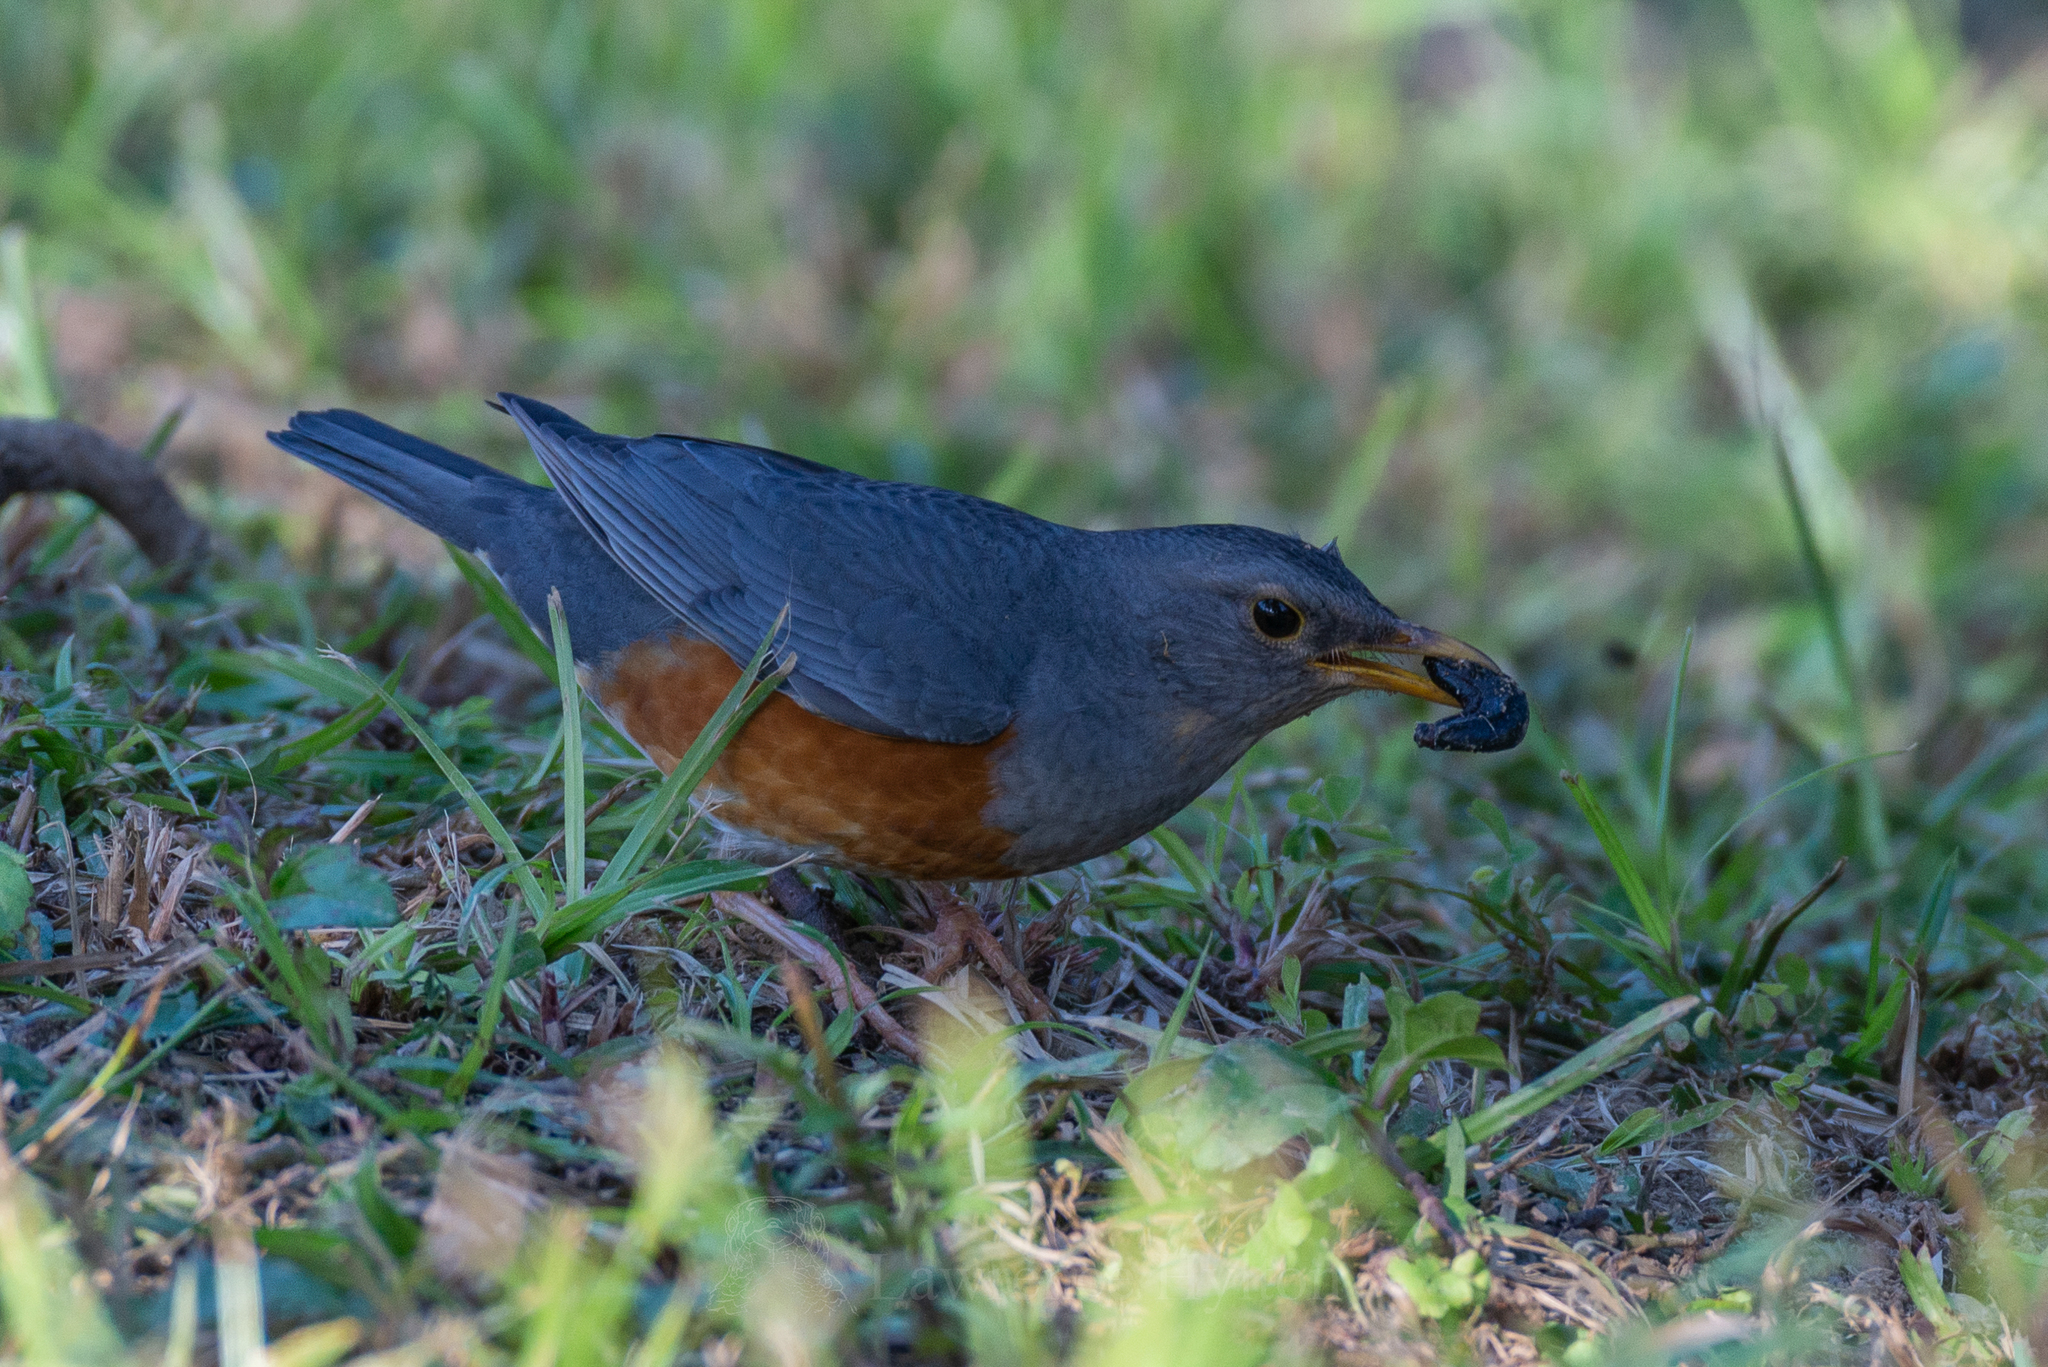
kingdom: Animalia
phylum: Chordata
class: Aves
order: Passeriformes
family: Turdidae
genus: Turdus
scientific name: Turdus hortulorum
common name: Grey-backed thrush
